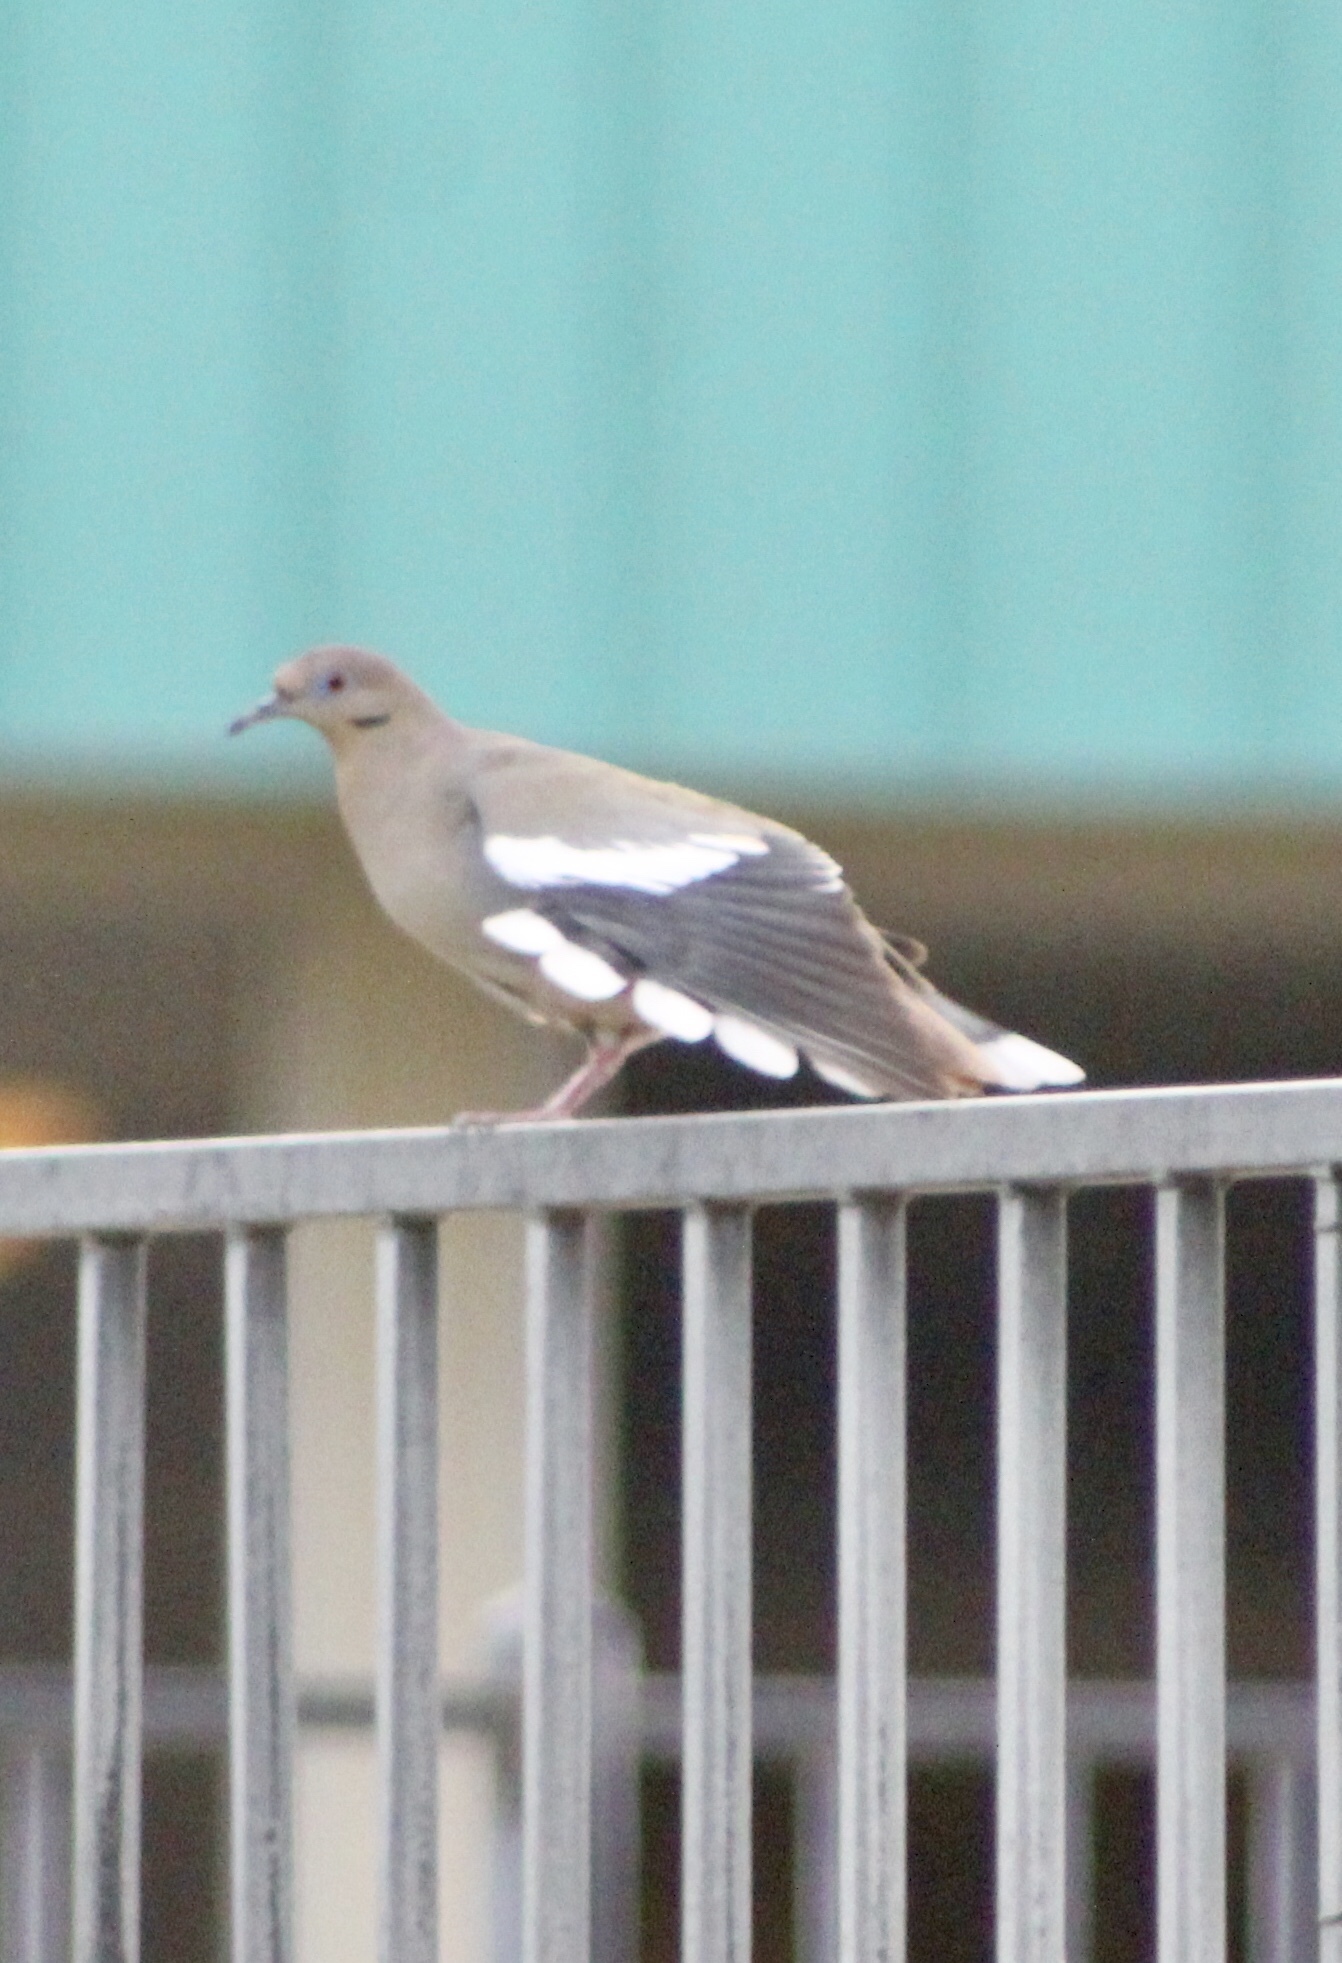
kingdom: Animalia
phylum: Chordata
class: Aves
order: Columbiformes
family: Columbidae
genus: Zenaida
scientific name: Zenaida asiatica
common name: White-winged dove
